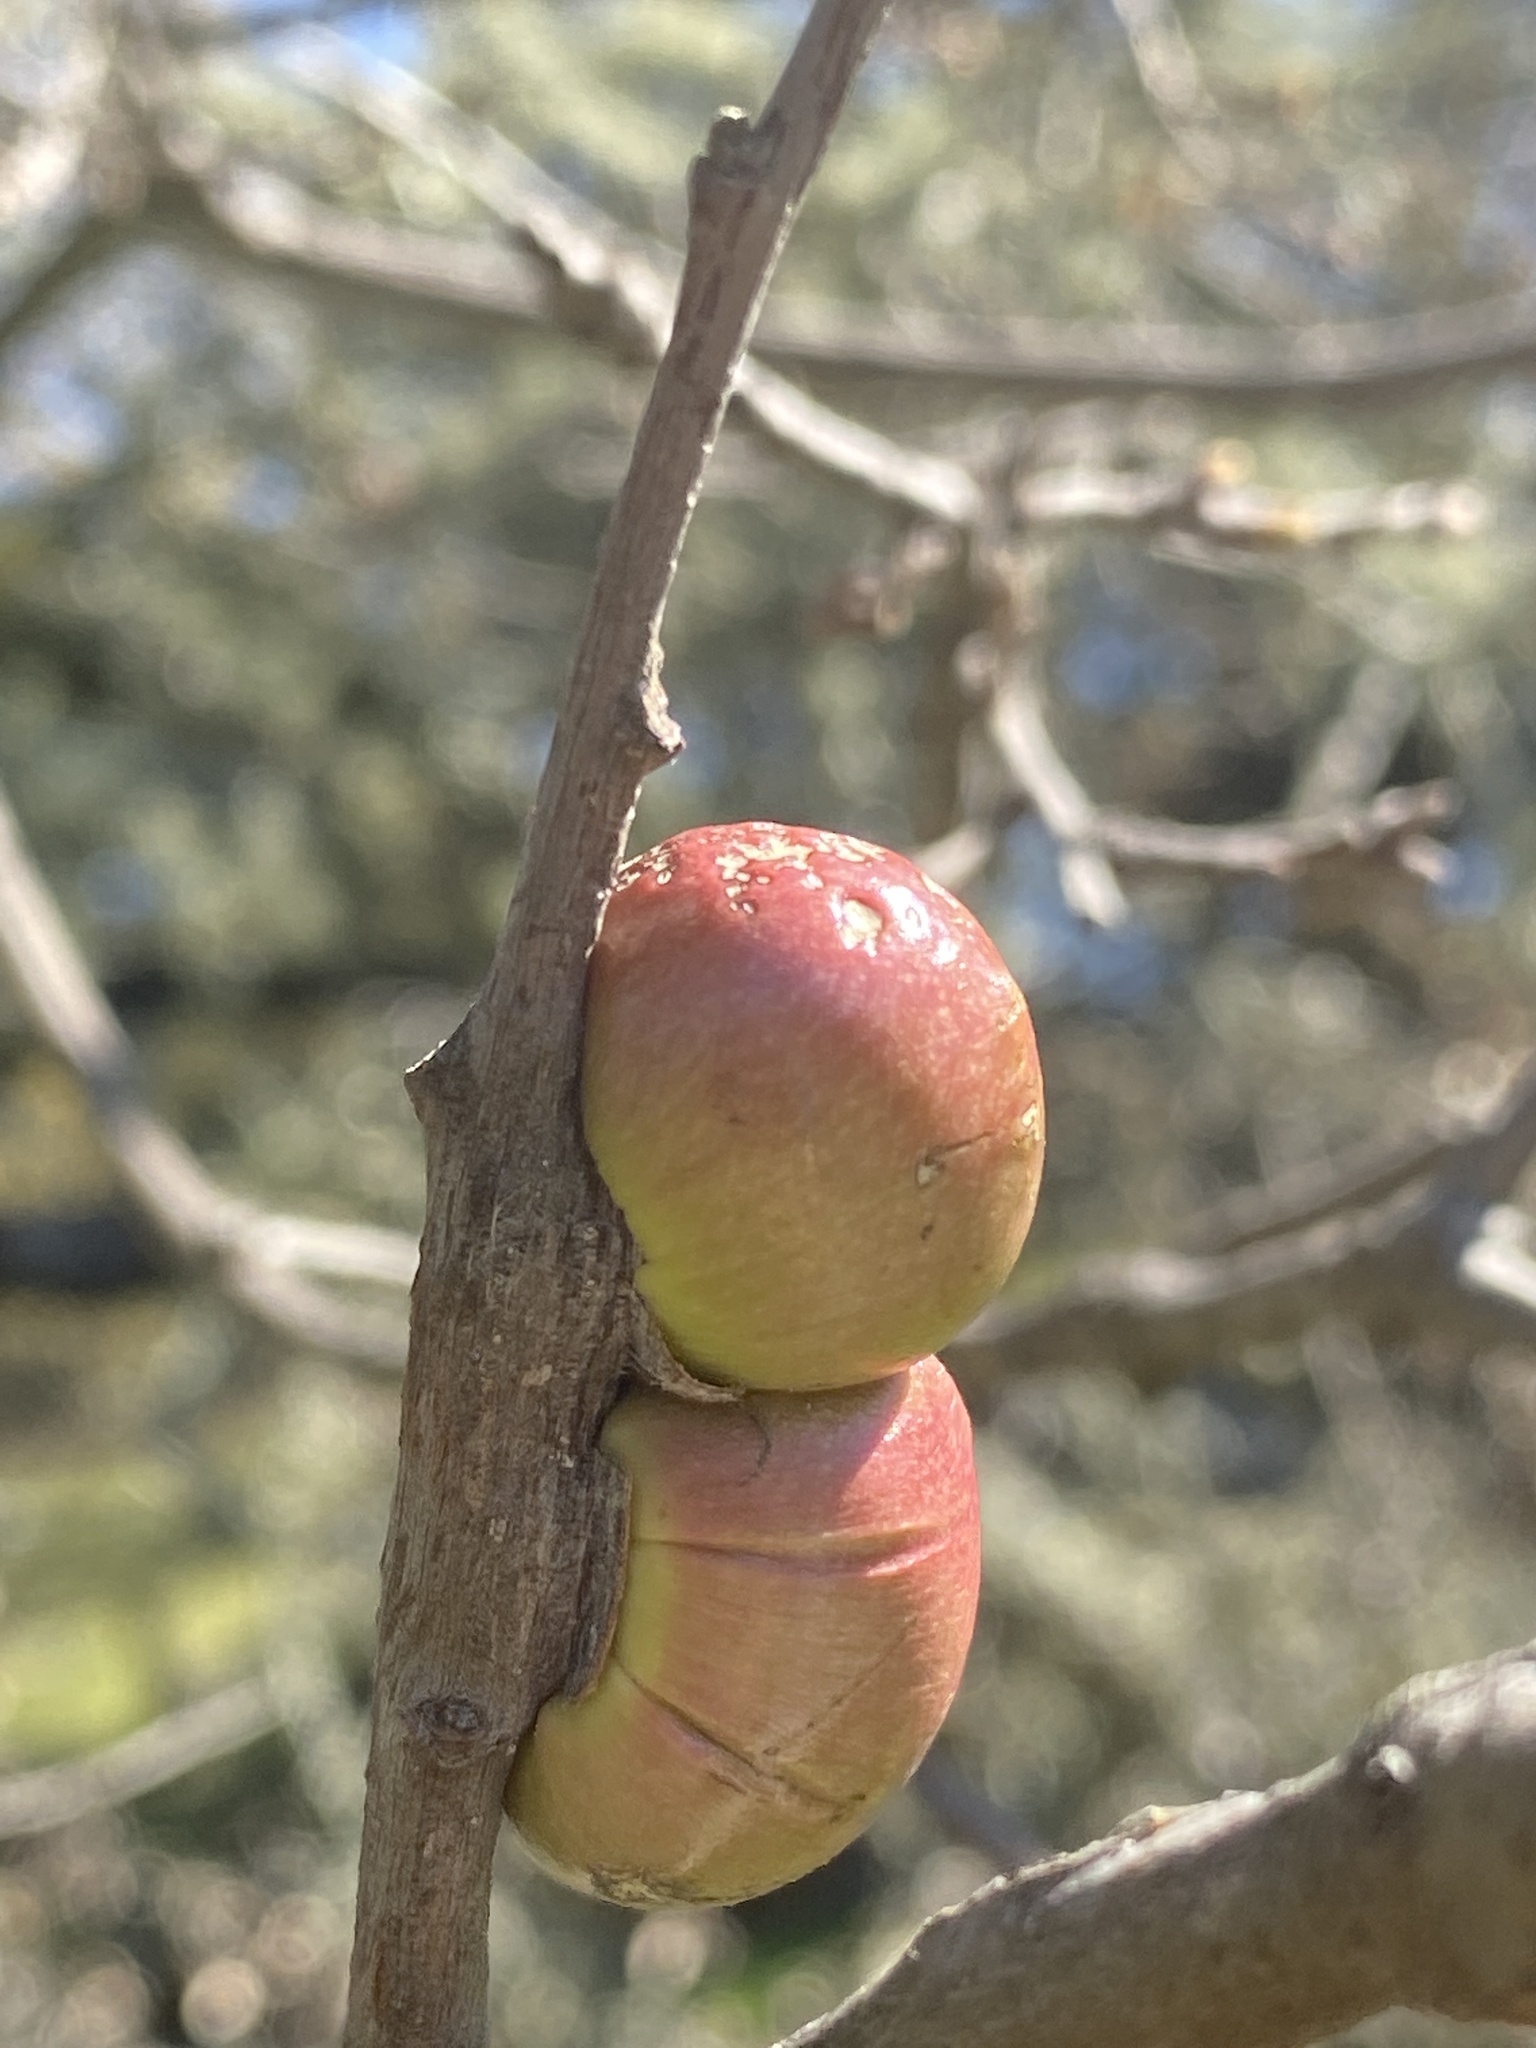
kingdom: Animalia
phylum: Arthropoda
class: Insecta
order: Hymenoptera
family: Cynipidae
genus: Andricus
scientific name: Andricus quercuscalifornicus
